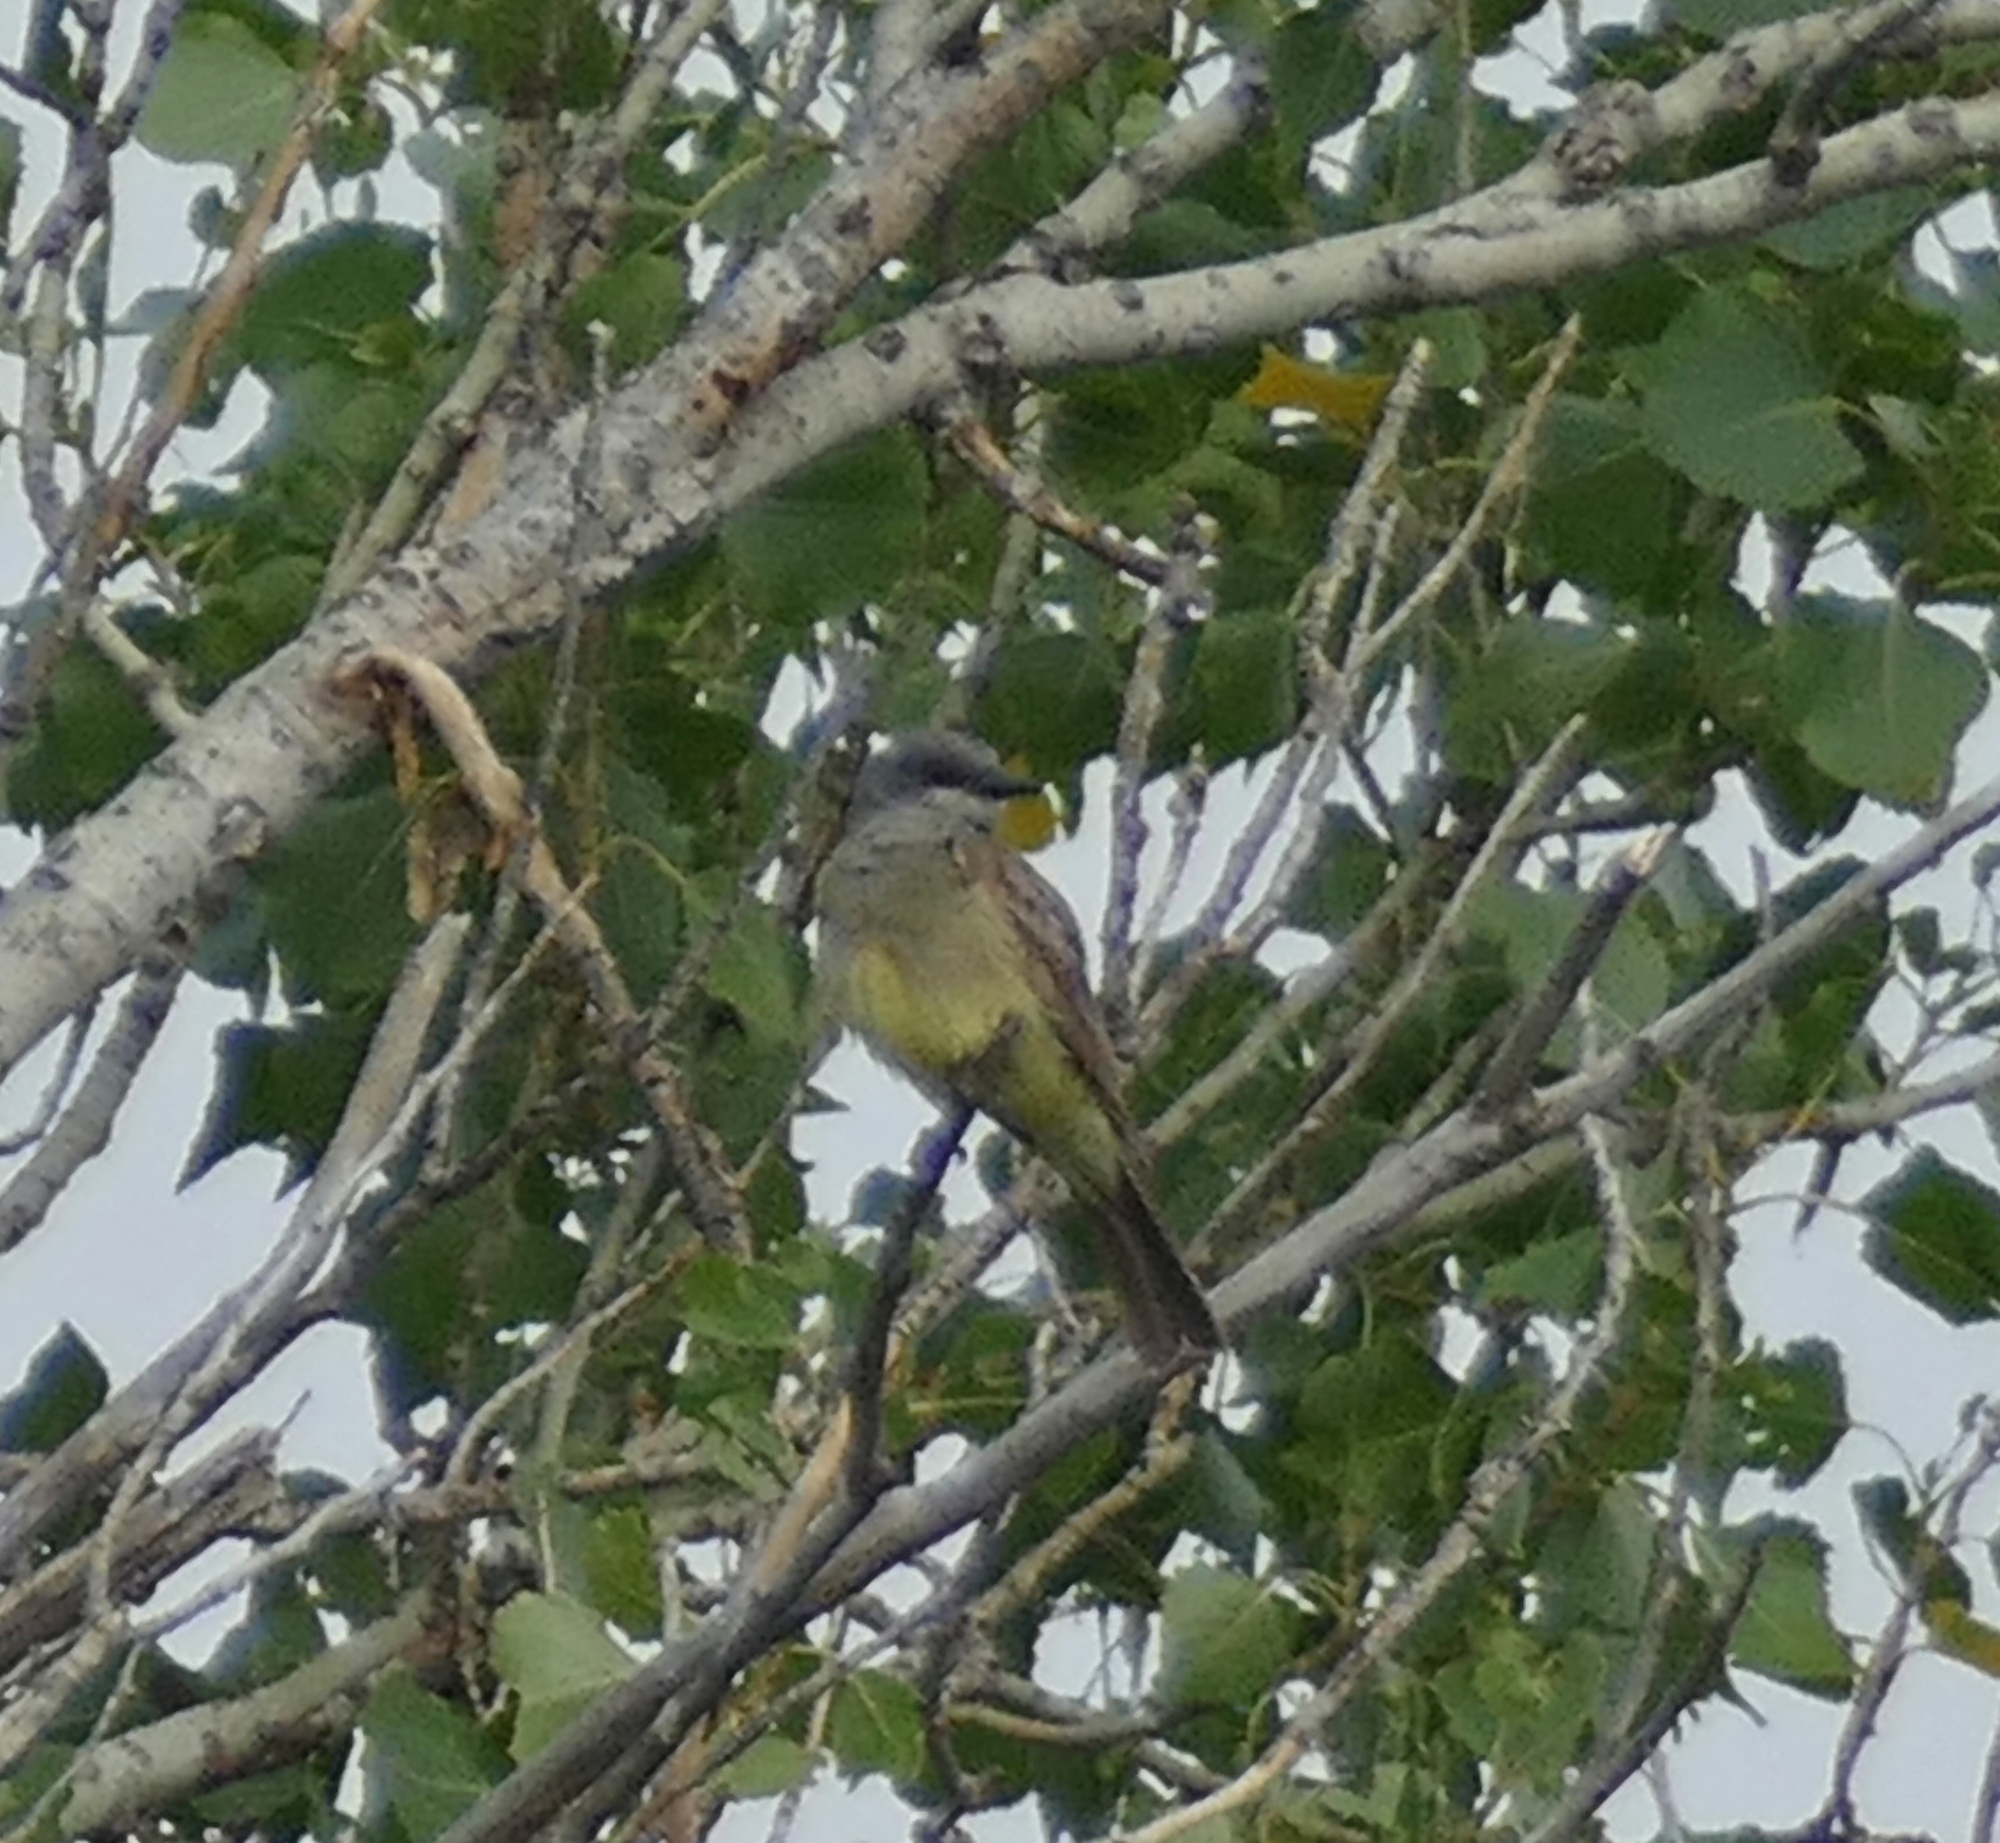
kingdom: Animalia
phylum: Chordata
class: Aves
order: Passeriformes
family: Tyrannidae
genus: Tyrannus
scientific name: Tyrannus vociferans
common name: Cassin's kingbird
